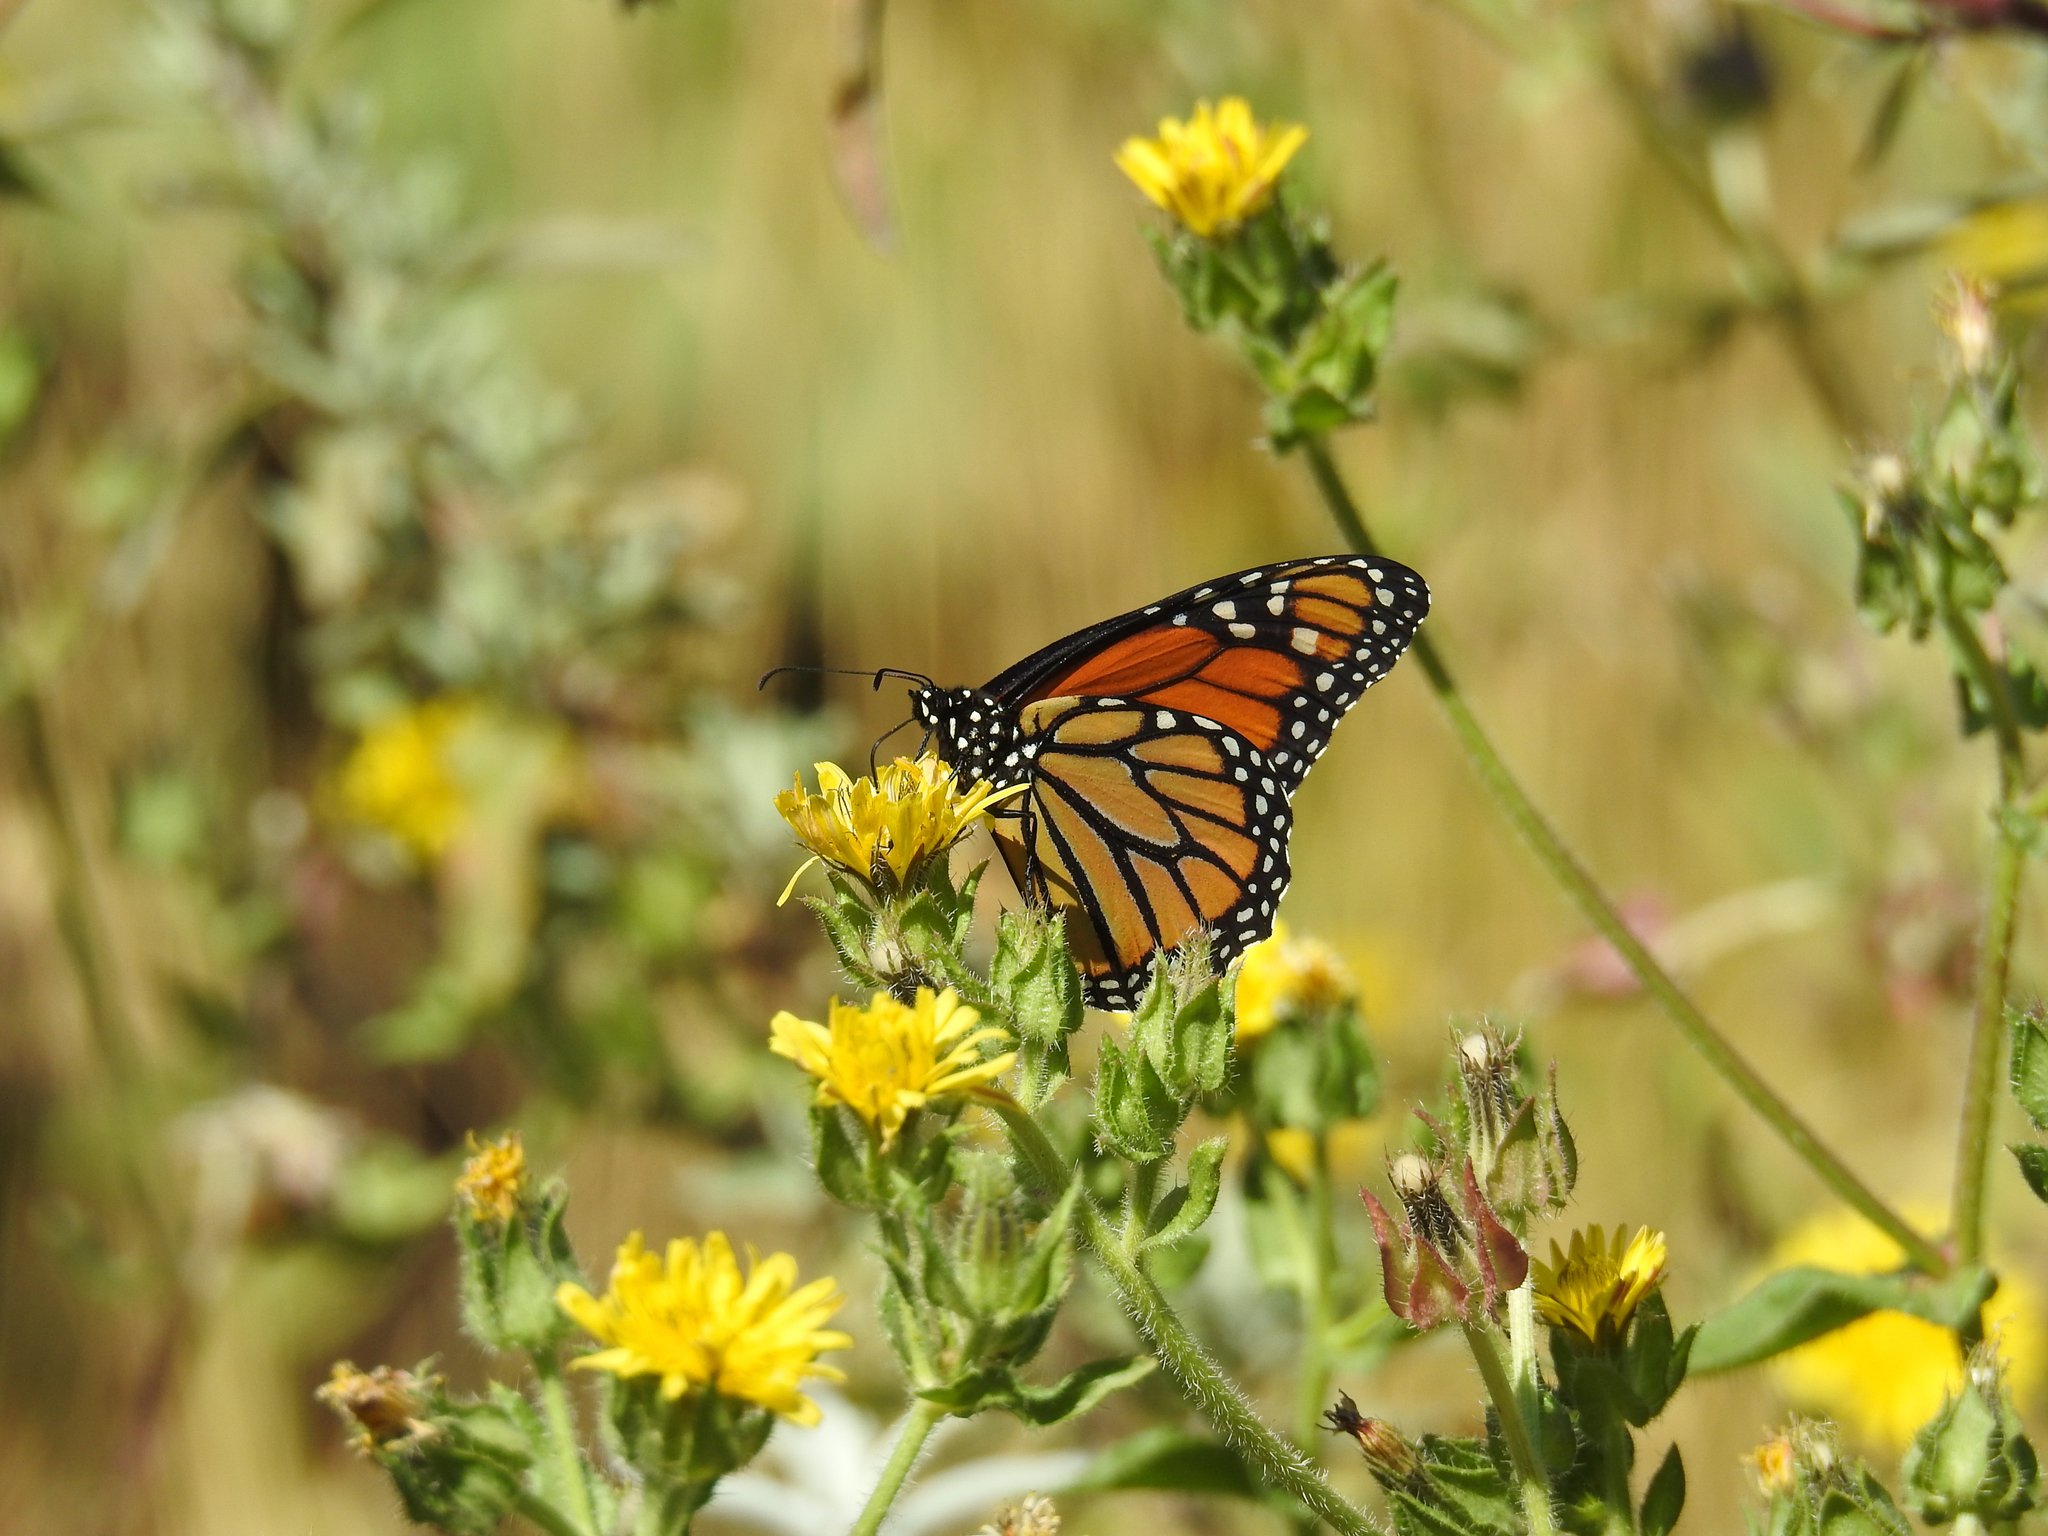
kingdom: Animalia
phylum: Arthropoda
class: Insecta
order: Lepidoptera
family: Nymphalidae
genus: Danaus
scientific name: Danaus plexippus
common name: Monarch
